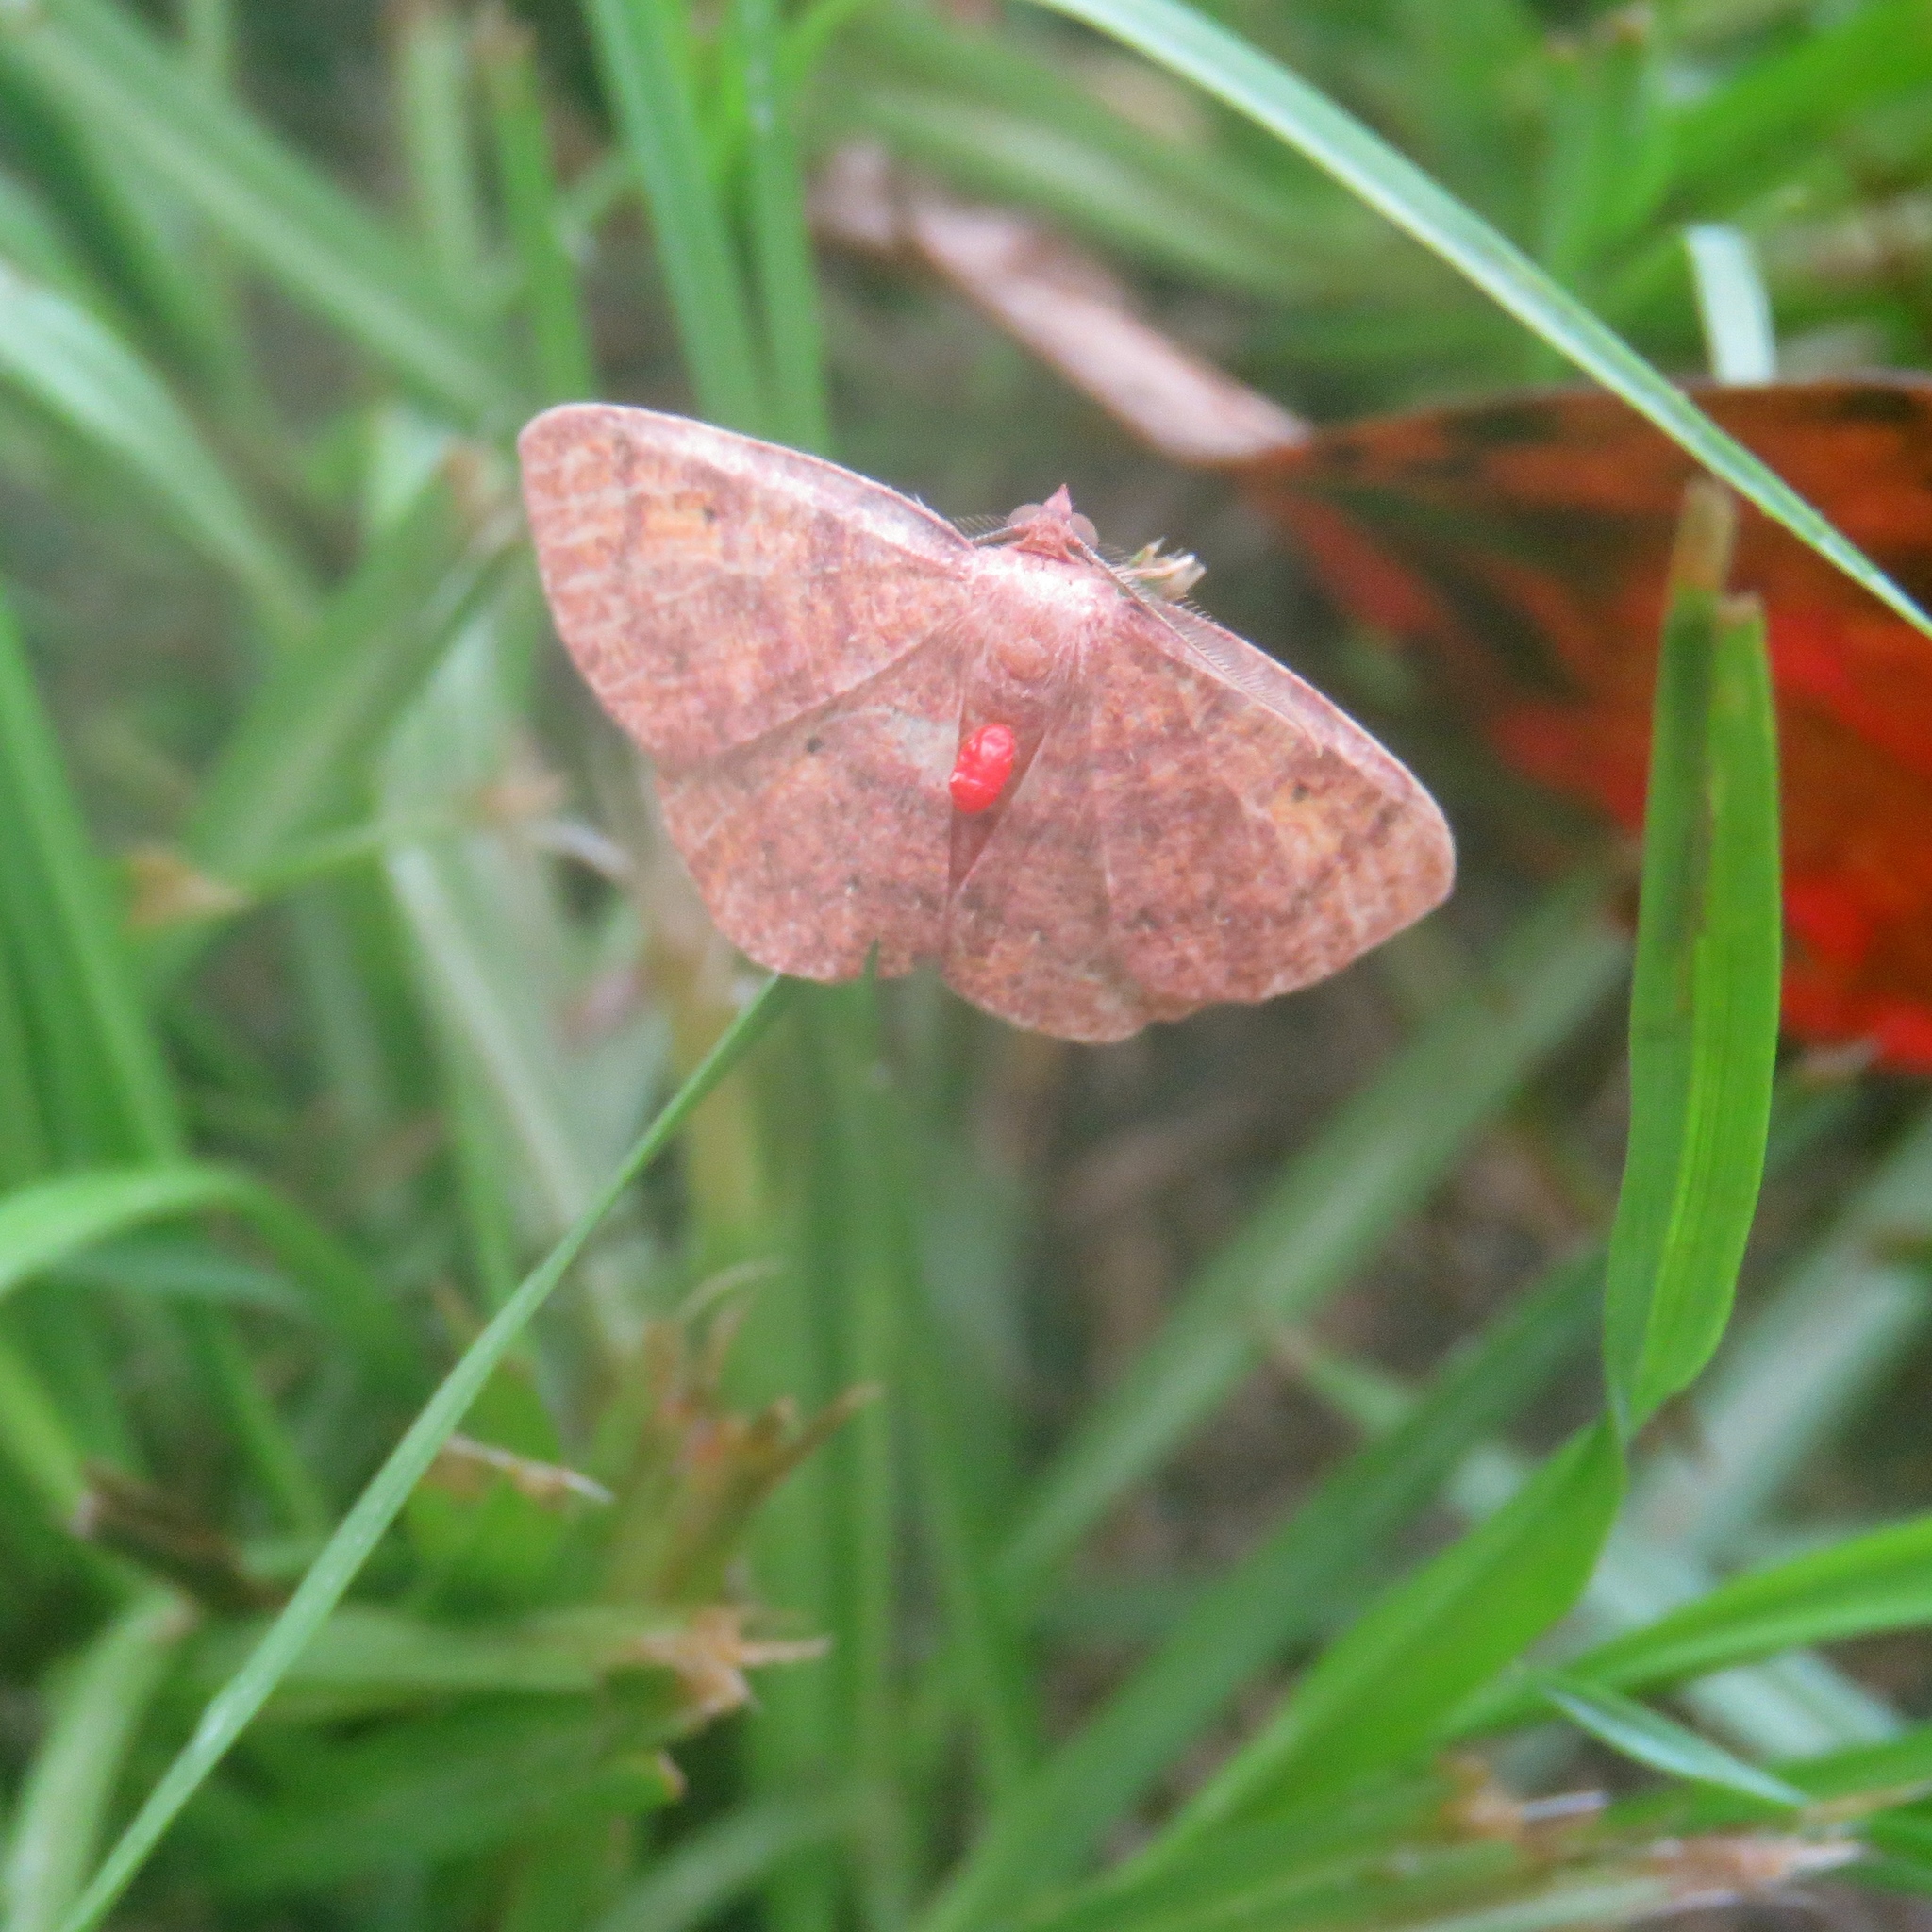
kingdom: Animalia
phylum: Arthropoda
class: Insecta
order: Lepidoptera
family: Geometridae
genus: Ilexia
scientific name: Ilexia intractata
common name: Black-dotted ruddy moth
